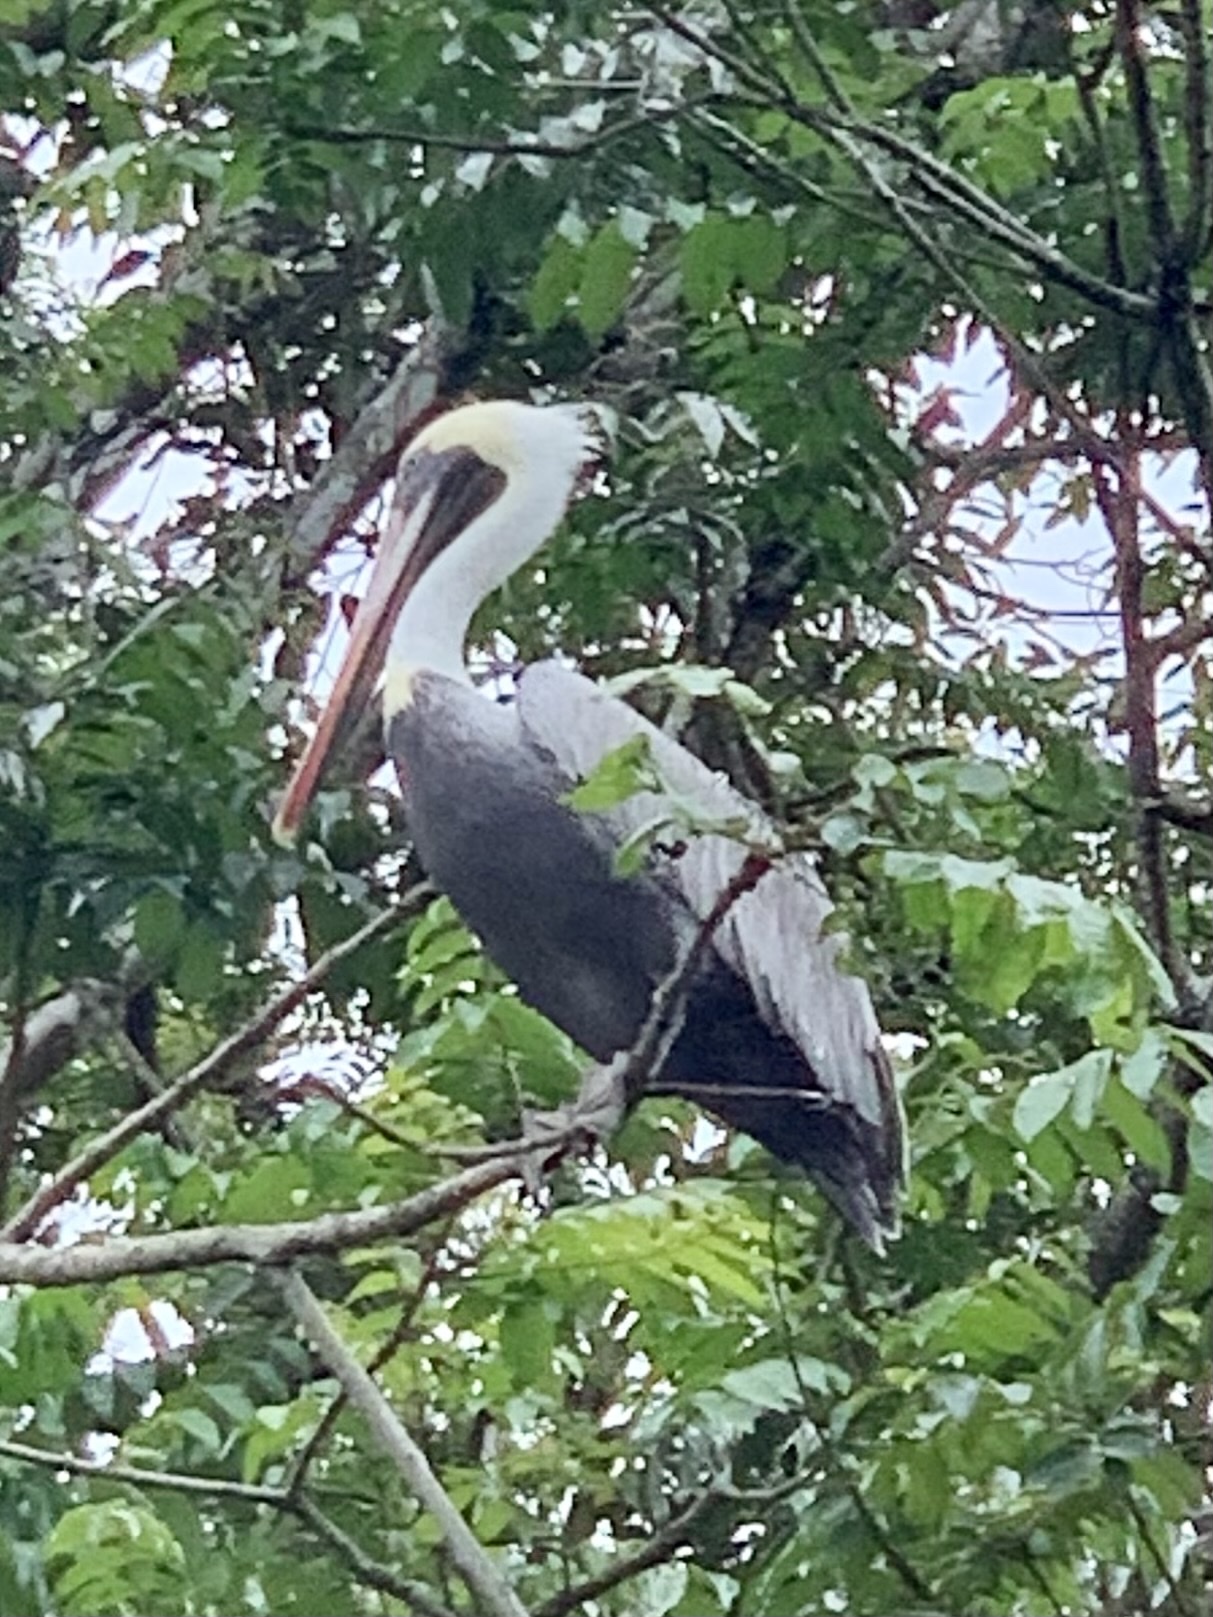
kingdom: Animalia
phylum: Chordata
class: Aves
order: Pelecaniformes
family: Pelecanidae
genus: Pelecanus
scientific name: Pelecanus occidentalis
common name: Brown pelican
